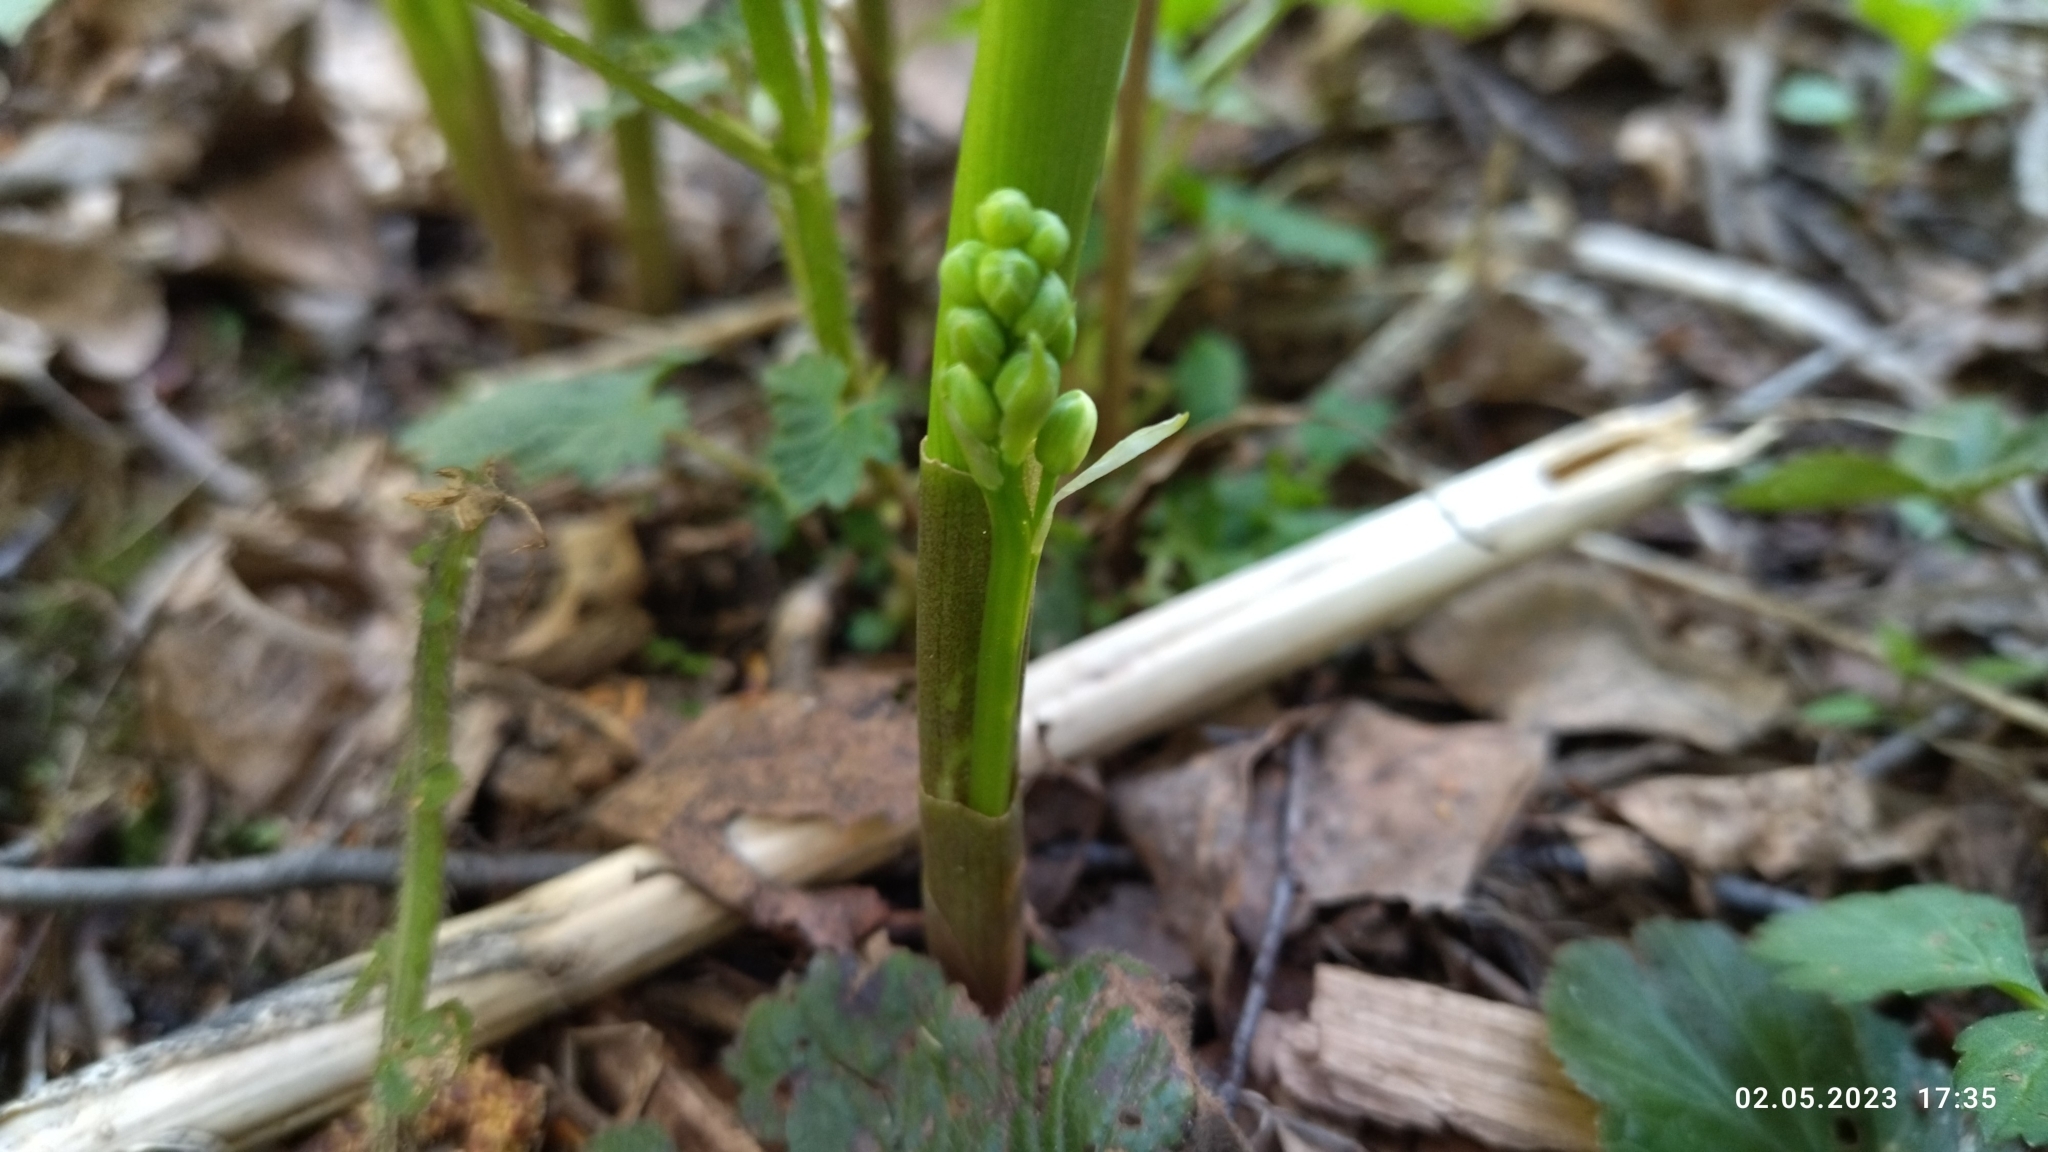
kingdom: Plantae
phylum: Tracheophyta
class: Liliopsida
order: Asparagales
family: Asparagaceae
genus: Convallaria
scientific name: Convallaria majalis
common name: Lily-of-the-valley
